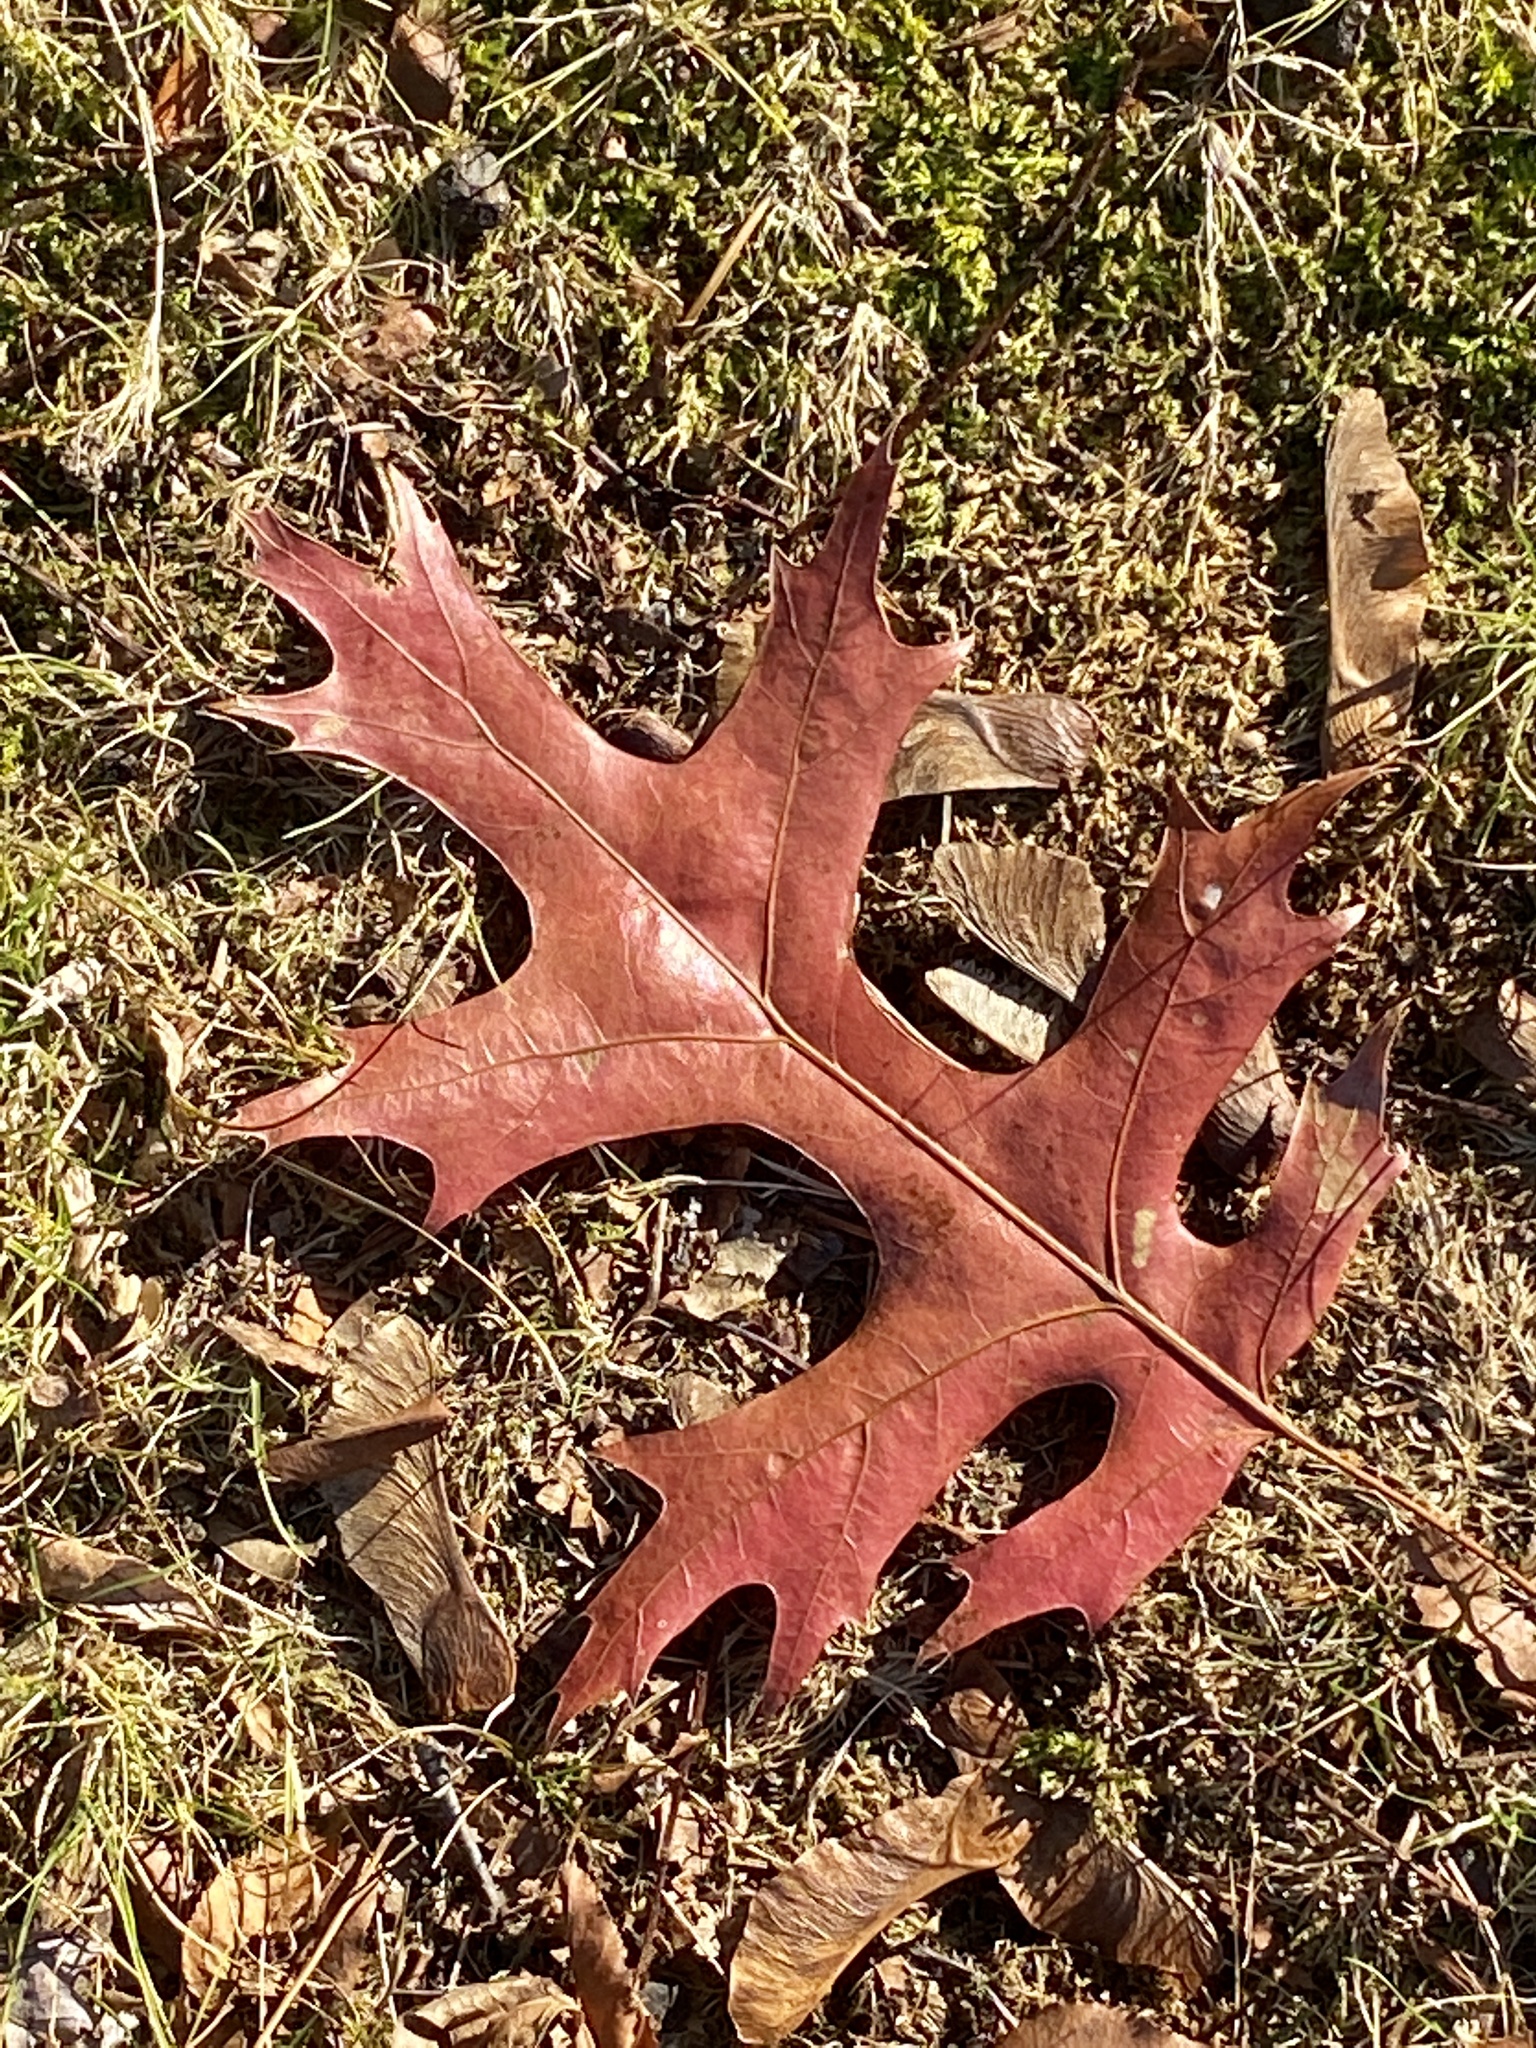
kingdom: Plantae
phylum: Tracheophyta
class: Magnoliopsida
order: Fagales
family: Fagaceae
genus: Quercus
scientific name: Quercus coccinea
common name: Scarlet oak
